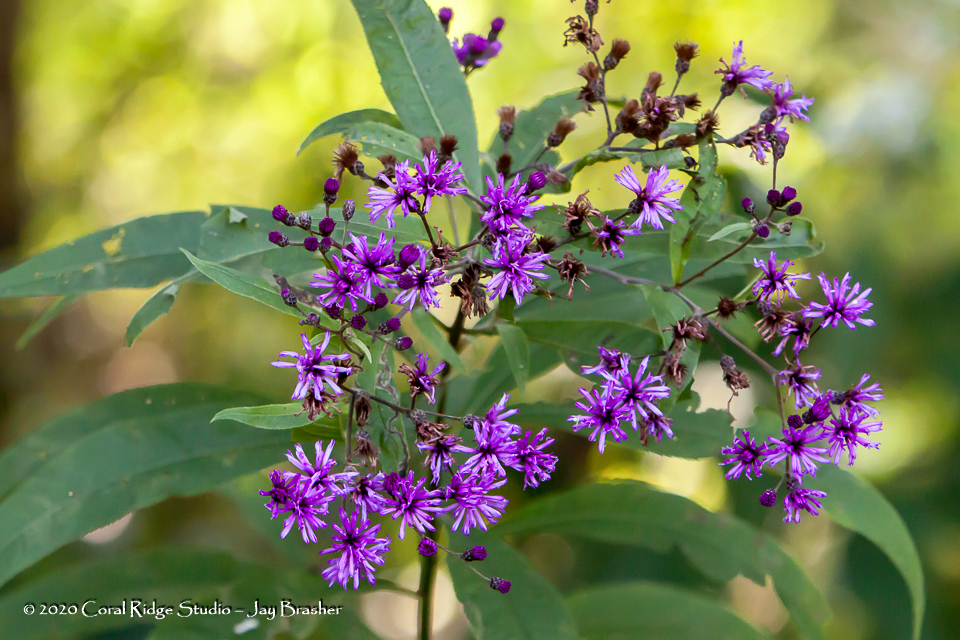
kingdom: Plantae
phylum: Tracheophyta
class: Magnoliopsida
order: Asterales
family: Asteraceae
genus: Vernonia
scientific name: Vernonia gigantea
